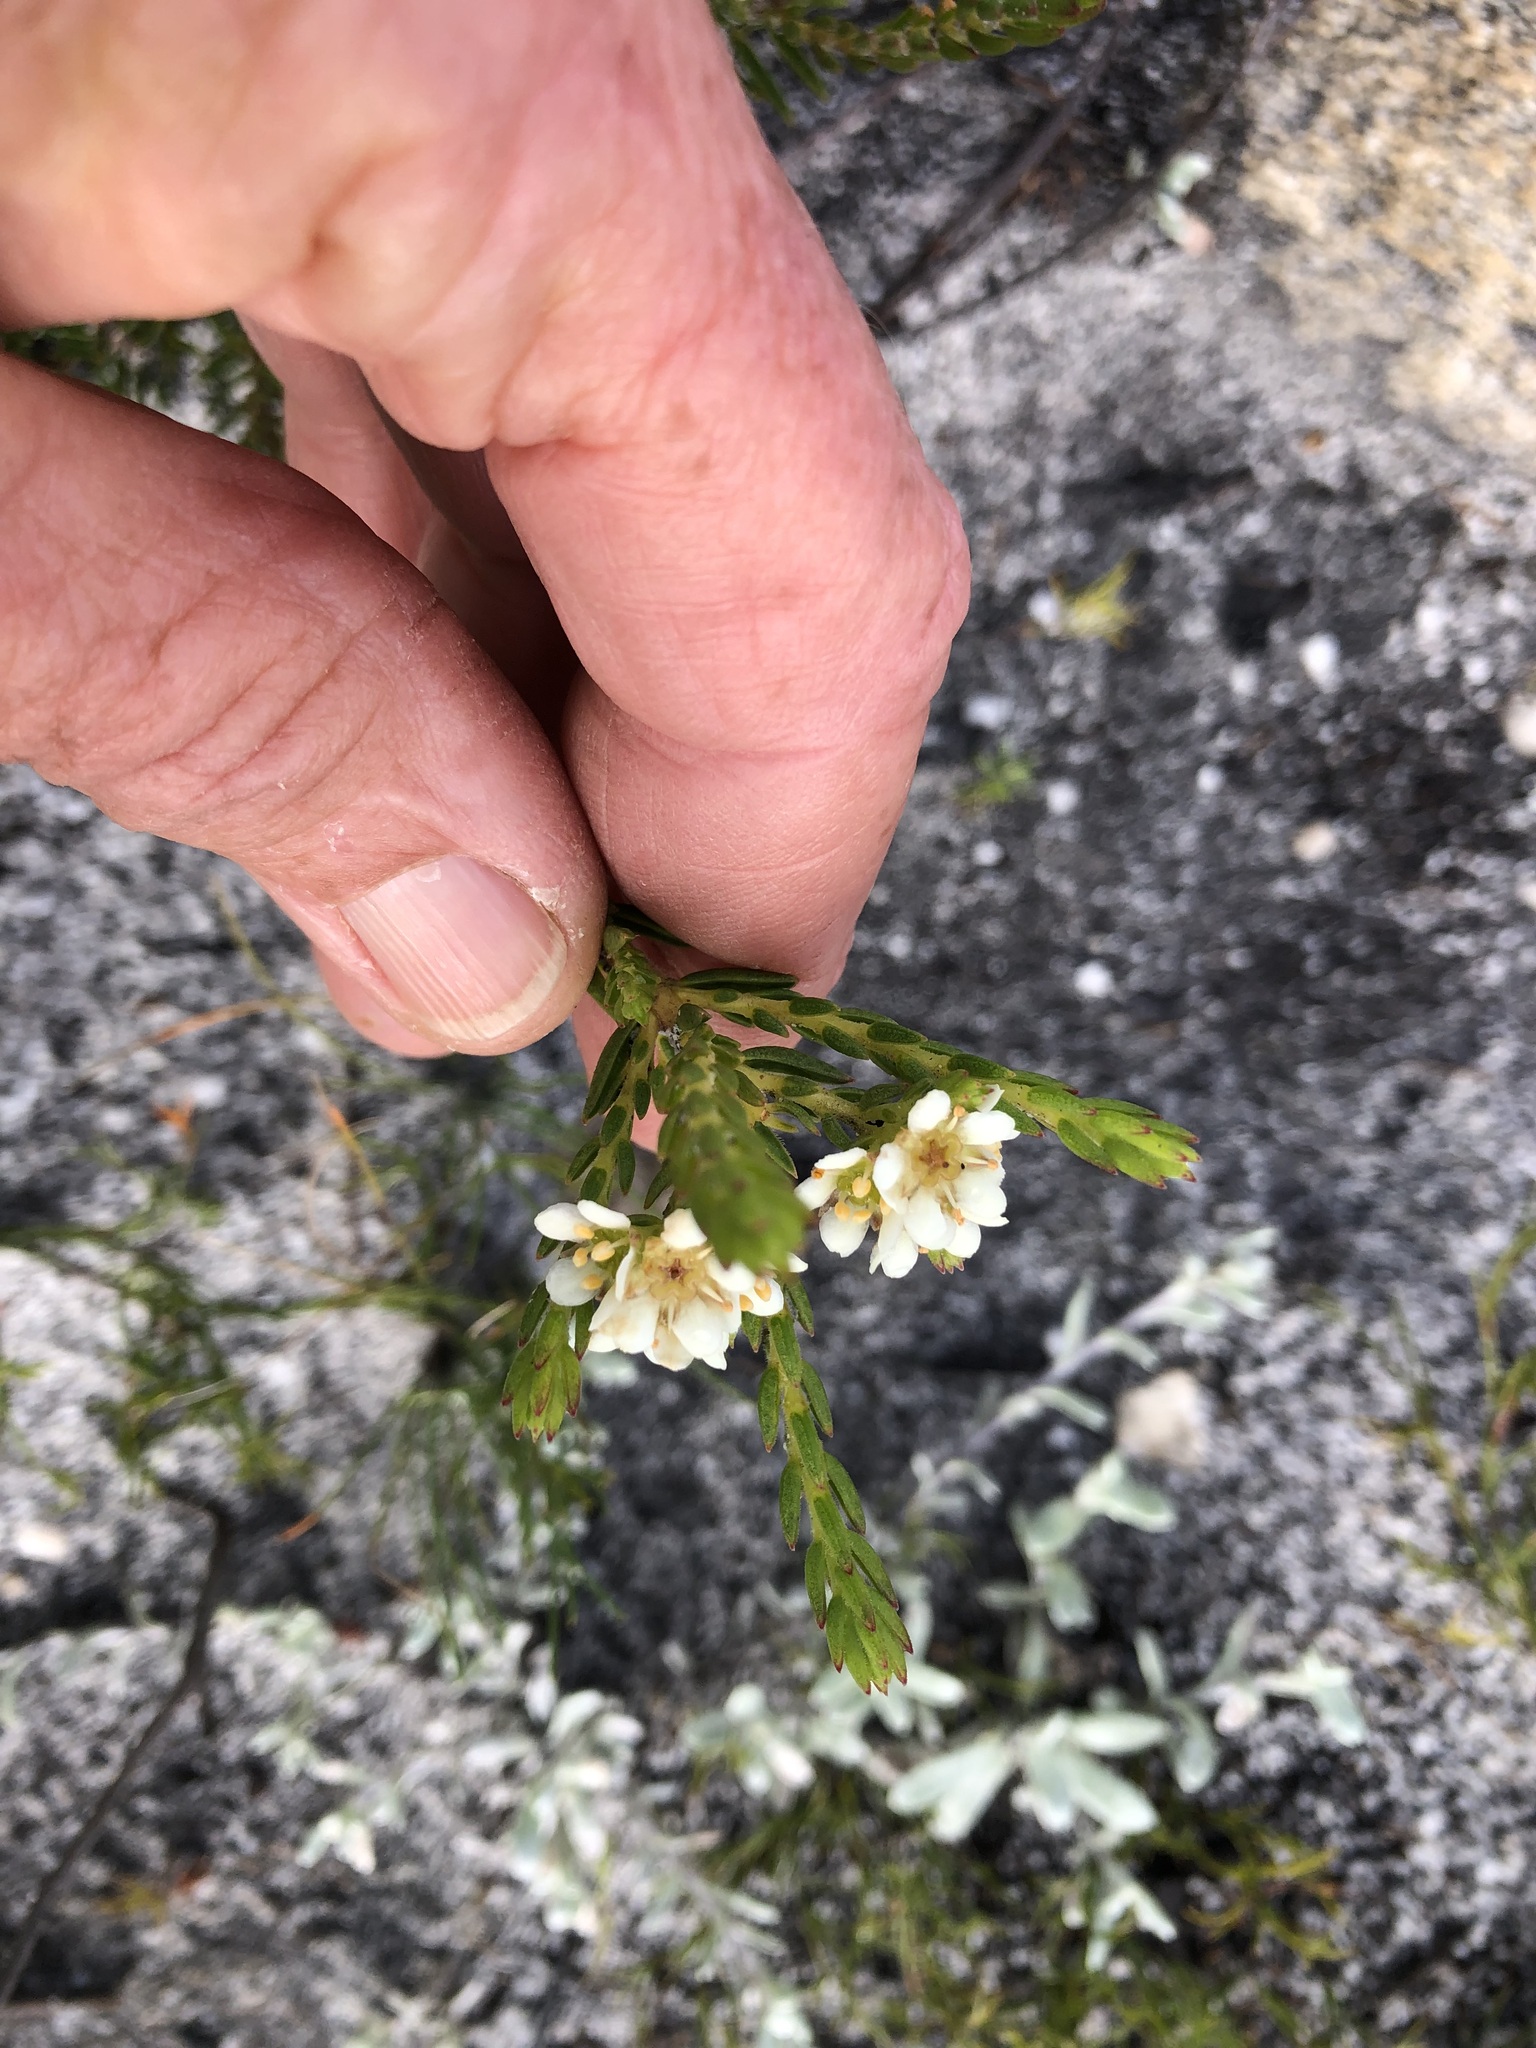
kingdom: Plantae
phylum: Tracheophyta
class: Magnoliopsida
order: Sapindales
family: Rutaceae
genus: Diosma
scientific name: Diosma oppositifolia
